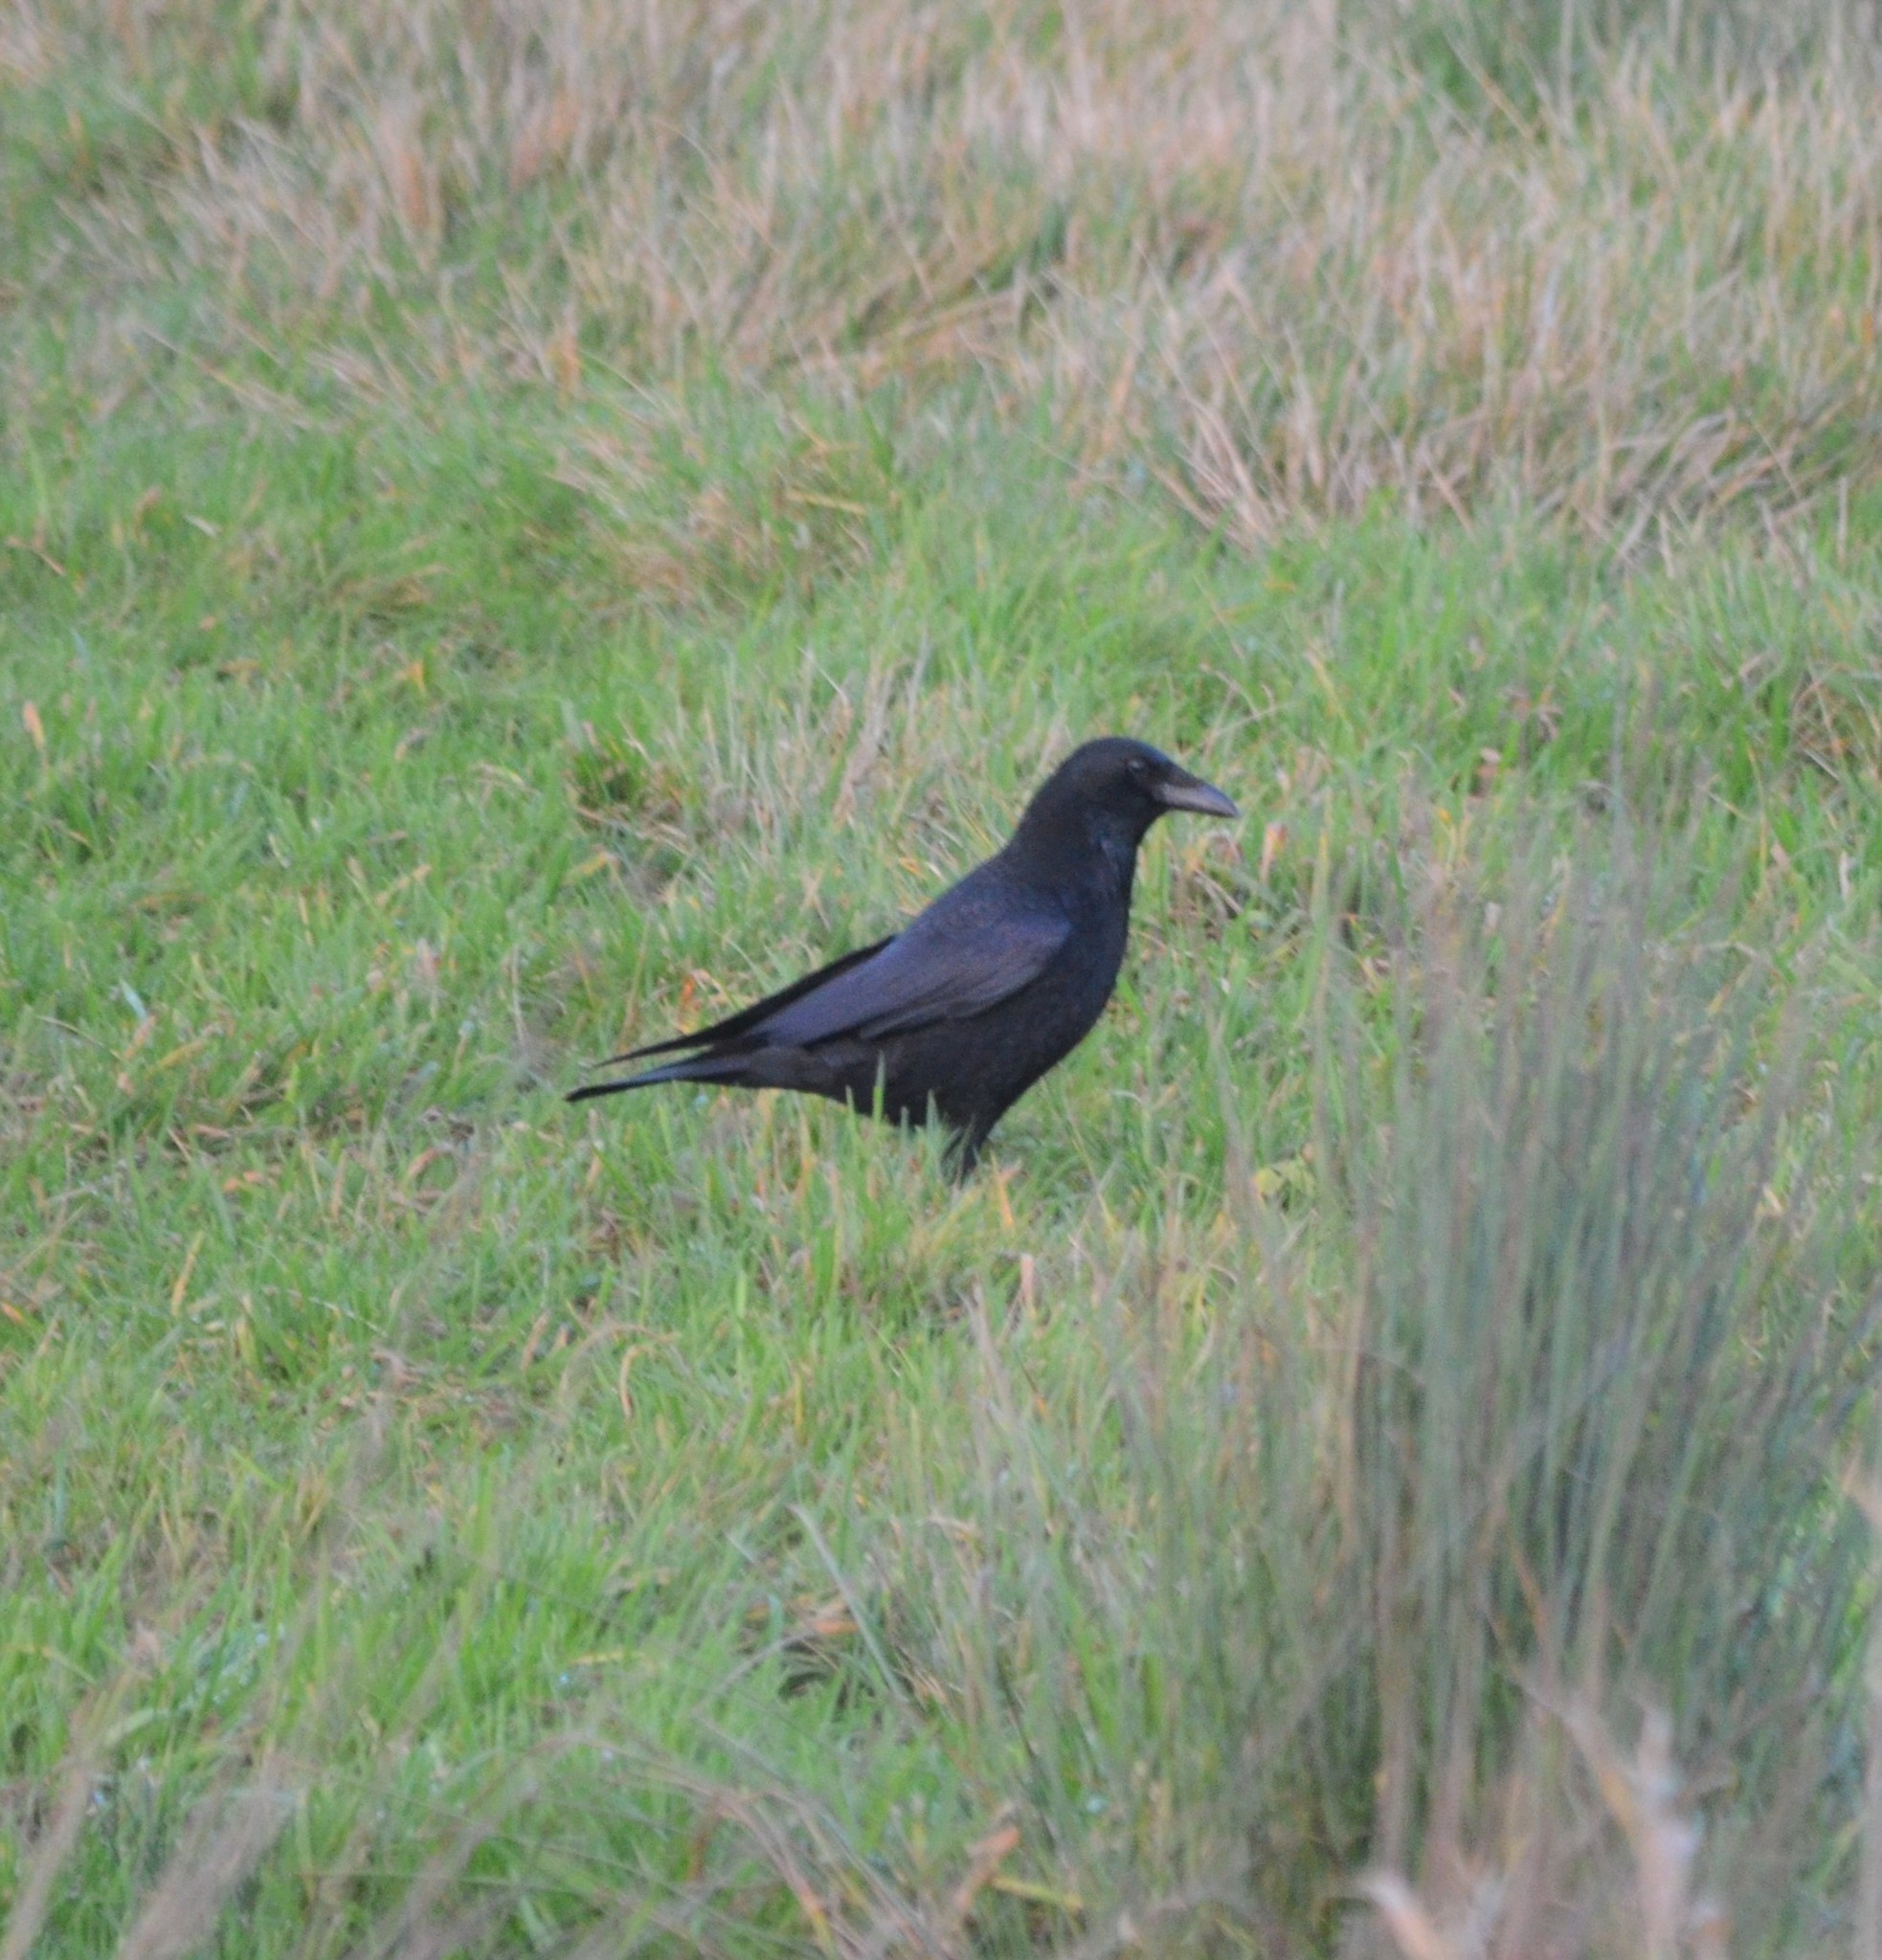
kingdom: Animalia
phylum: Chordata
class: Aves
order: Passeriformes
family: Corvidae
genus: Corvus
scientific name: Corvus corone
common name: Carrion crow
